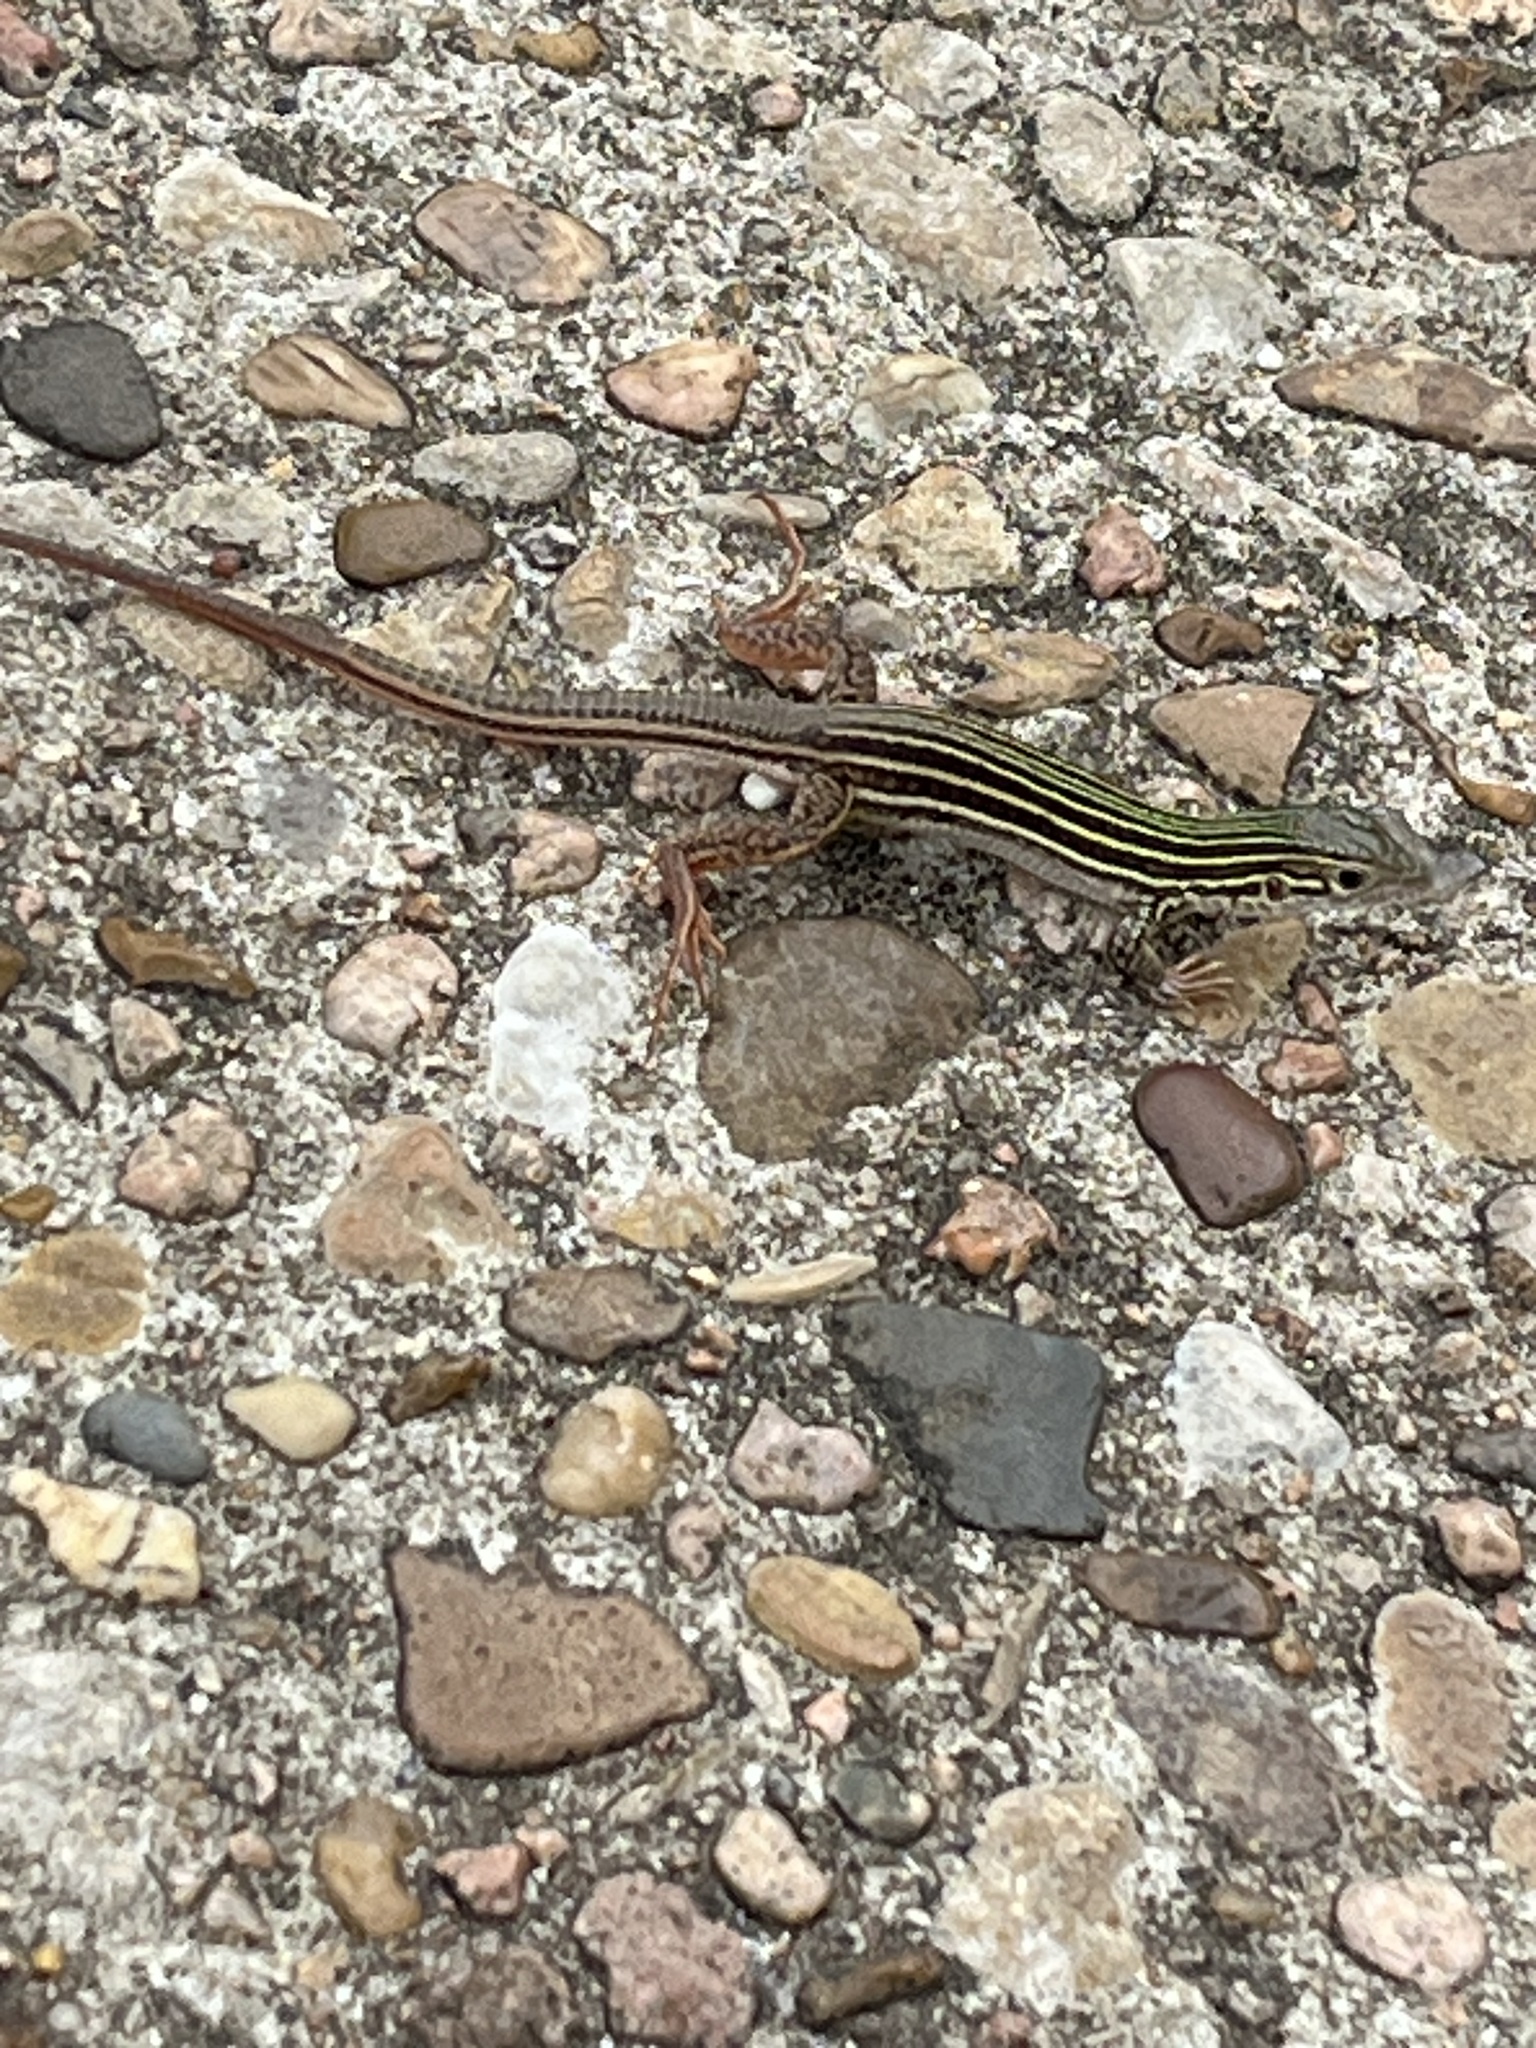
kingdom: Animalia
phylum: Chordata
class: Squamata
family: Teiidae
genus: Aspidoscelis
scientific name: Aspidoscelis gularis
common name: Eastern spotted whiptail
